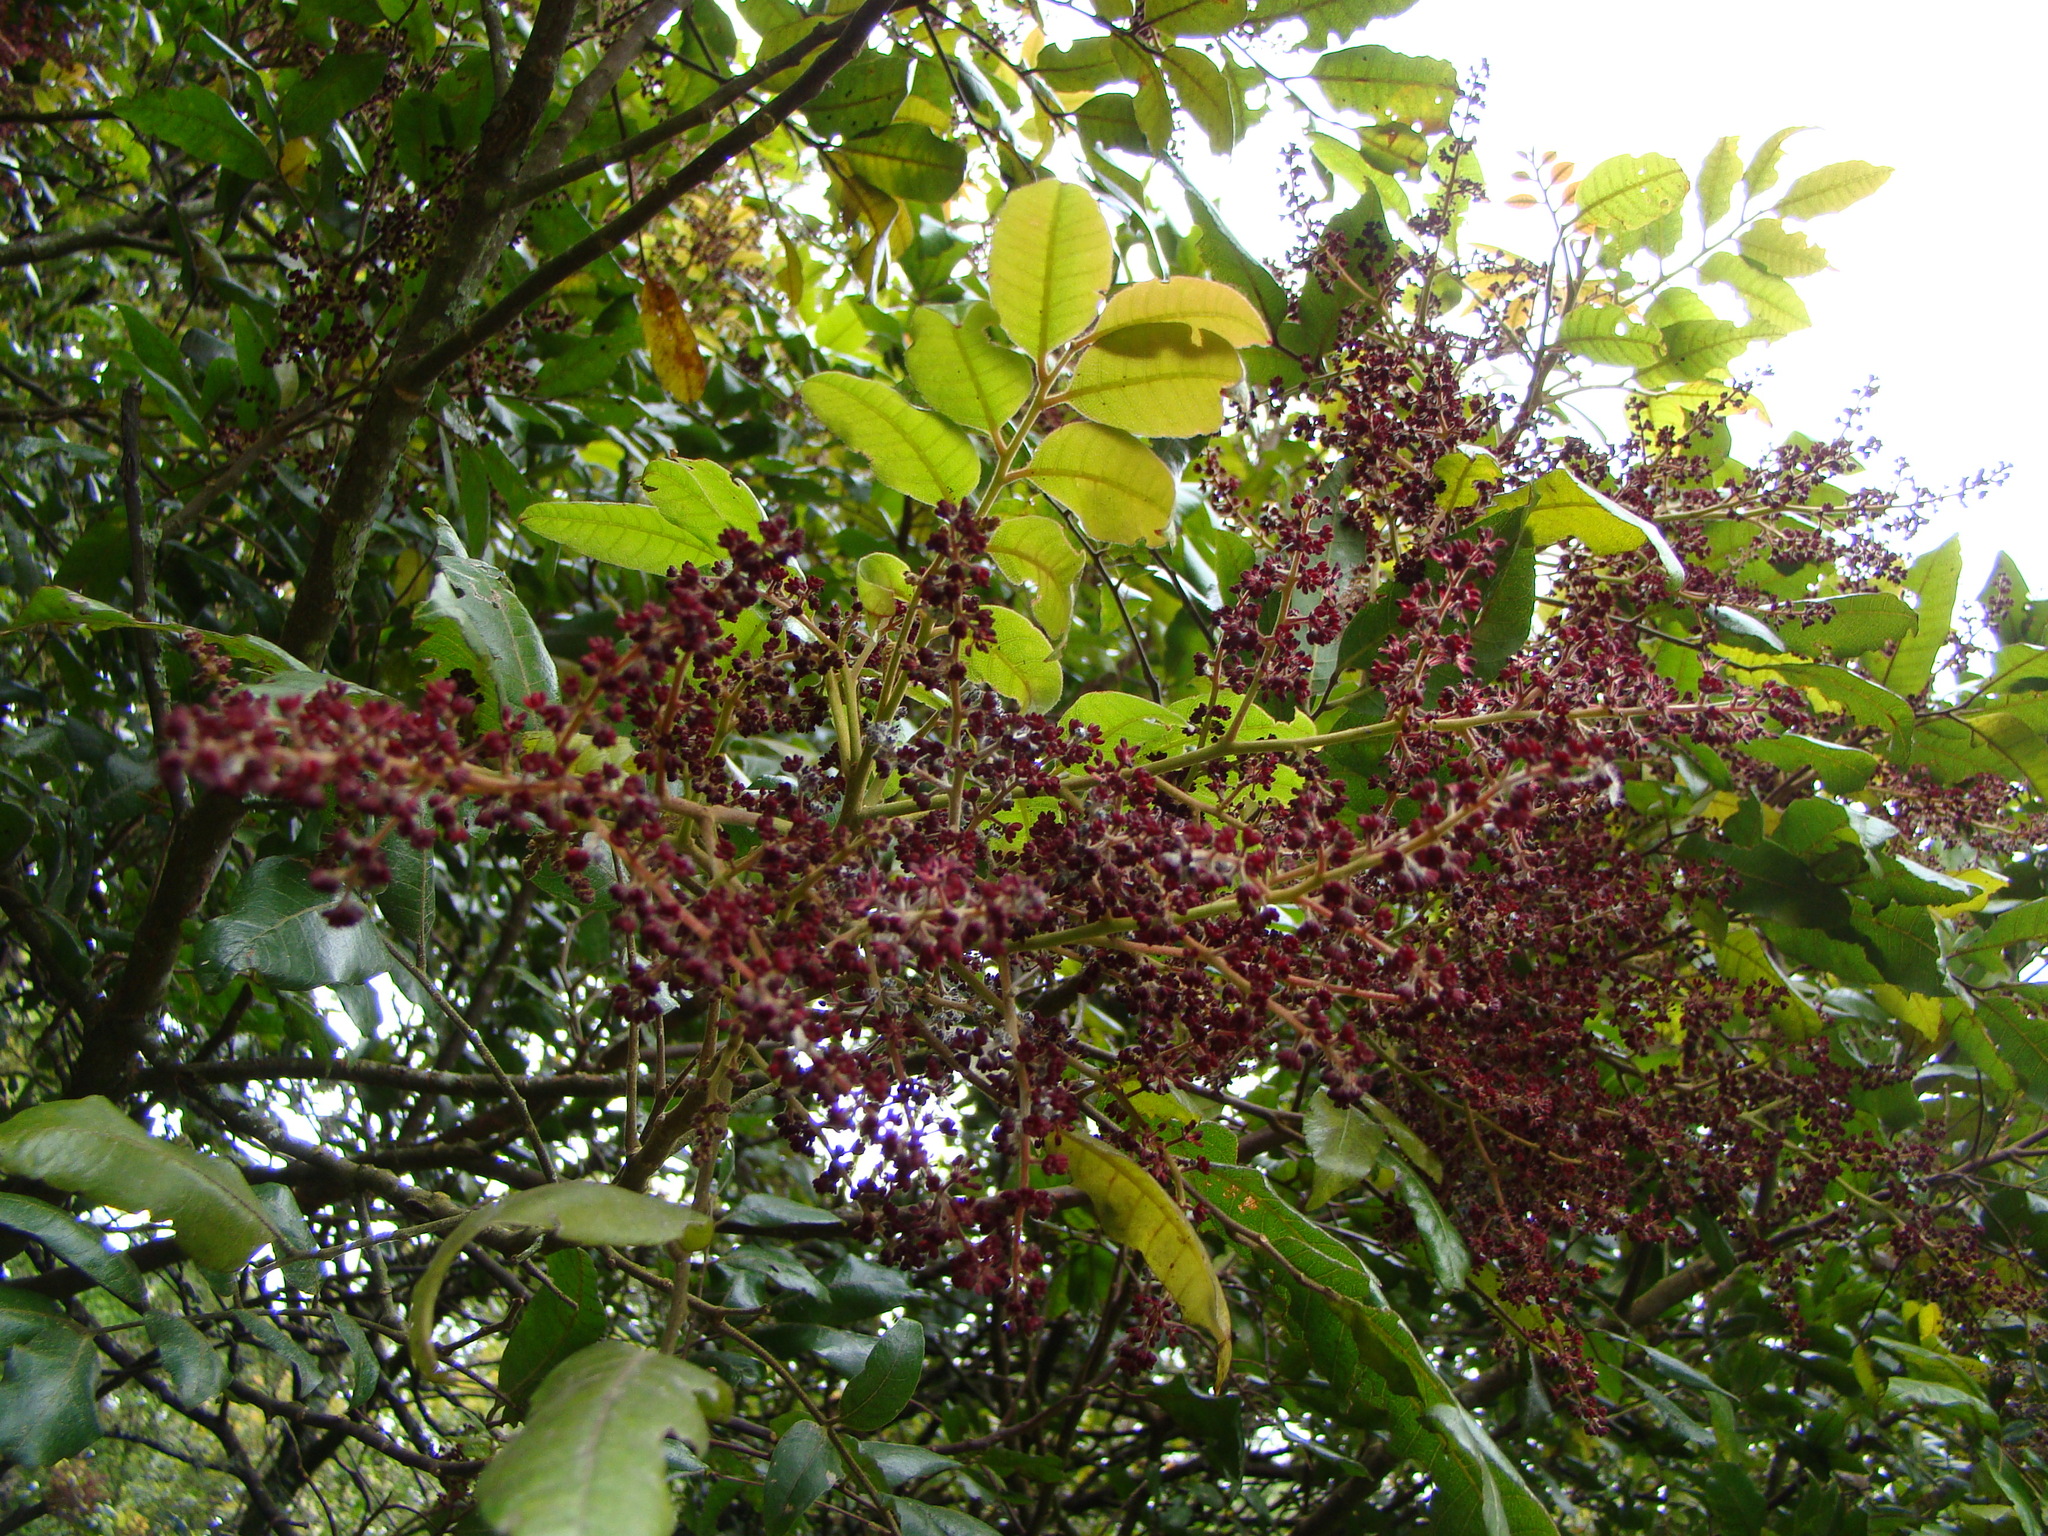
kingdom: Plantae
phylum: Tracheophyta
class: Magnoliopsida
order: Sapindales
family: Sapindaceae
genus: Alectryon
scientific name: Alectryon excelsus
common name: Three kings titoki
